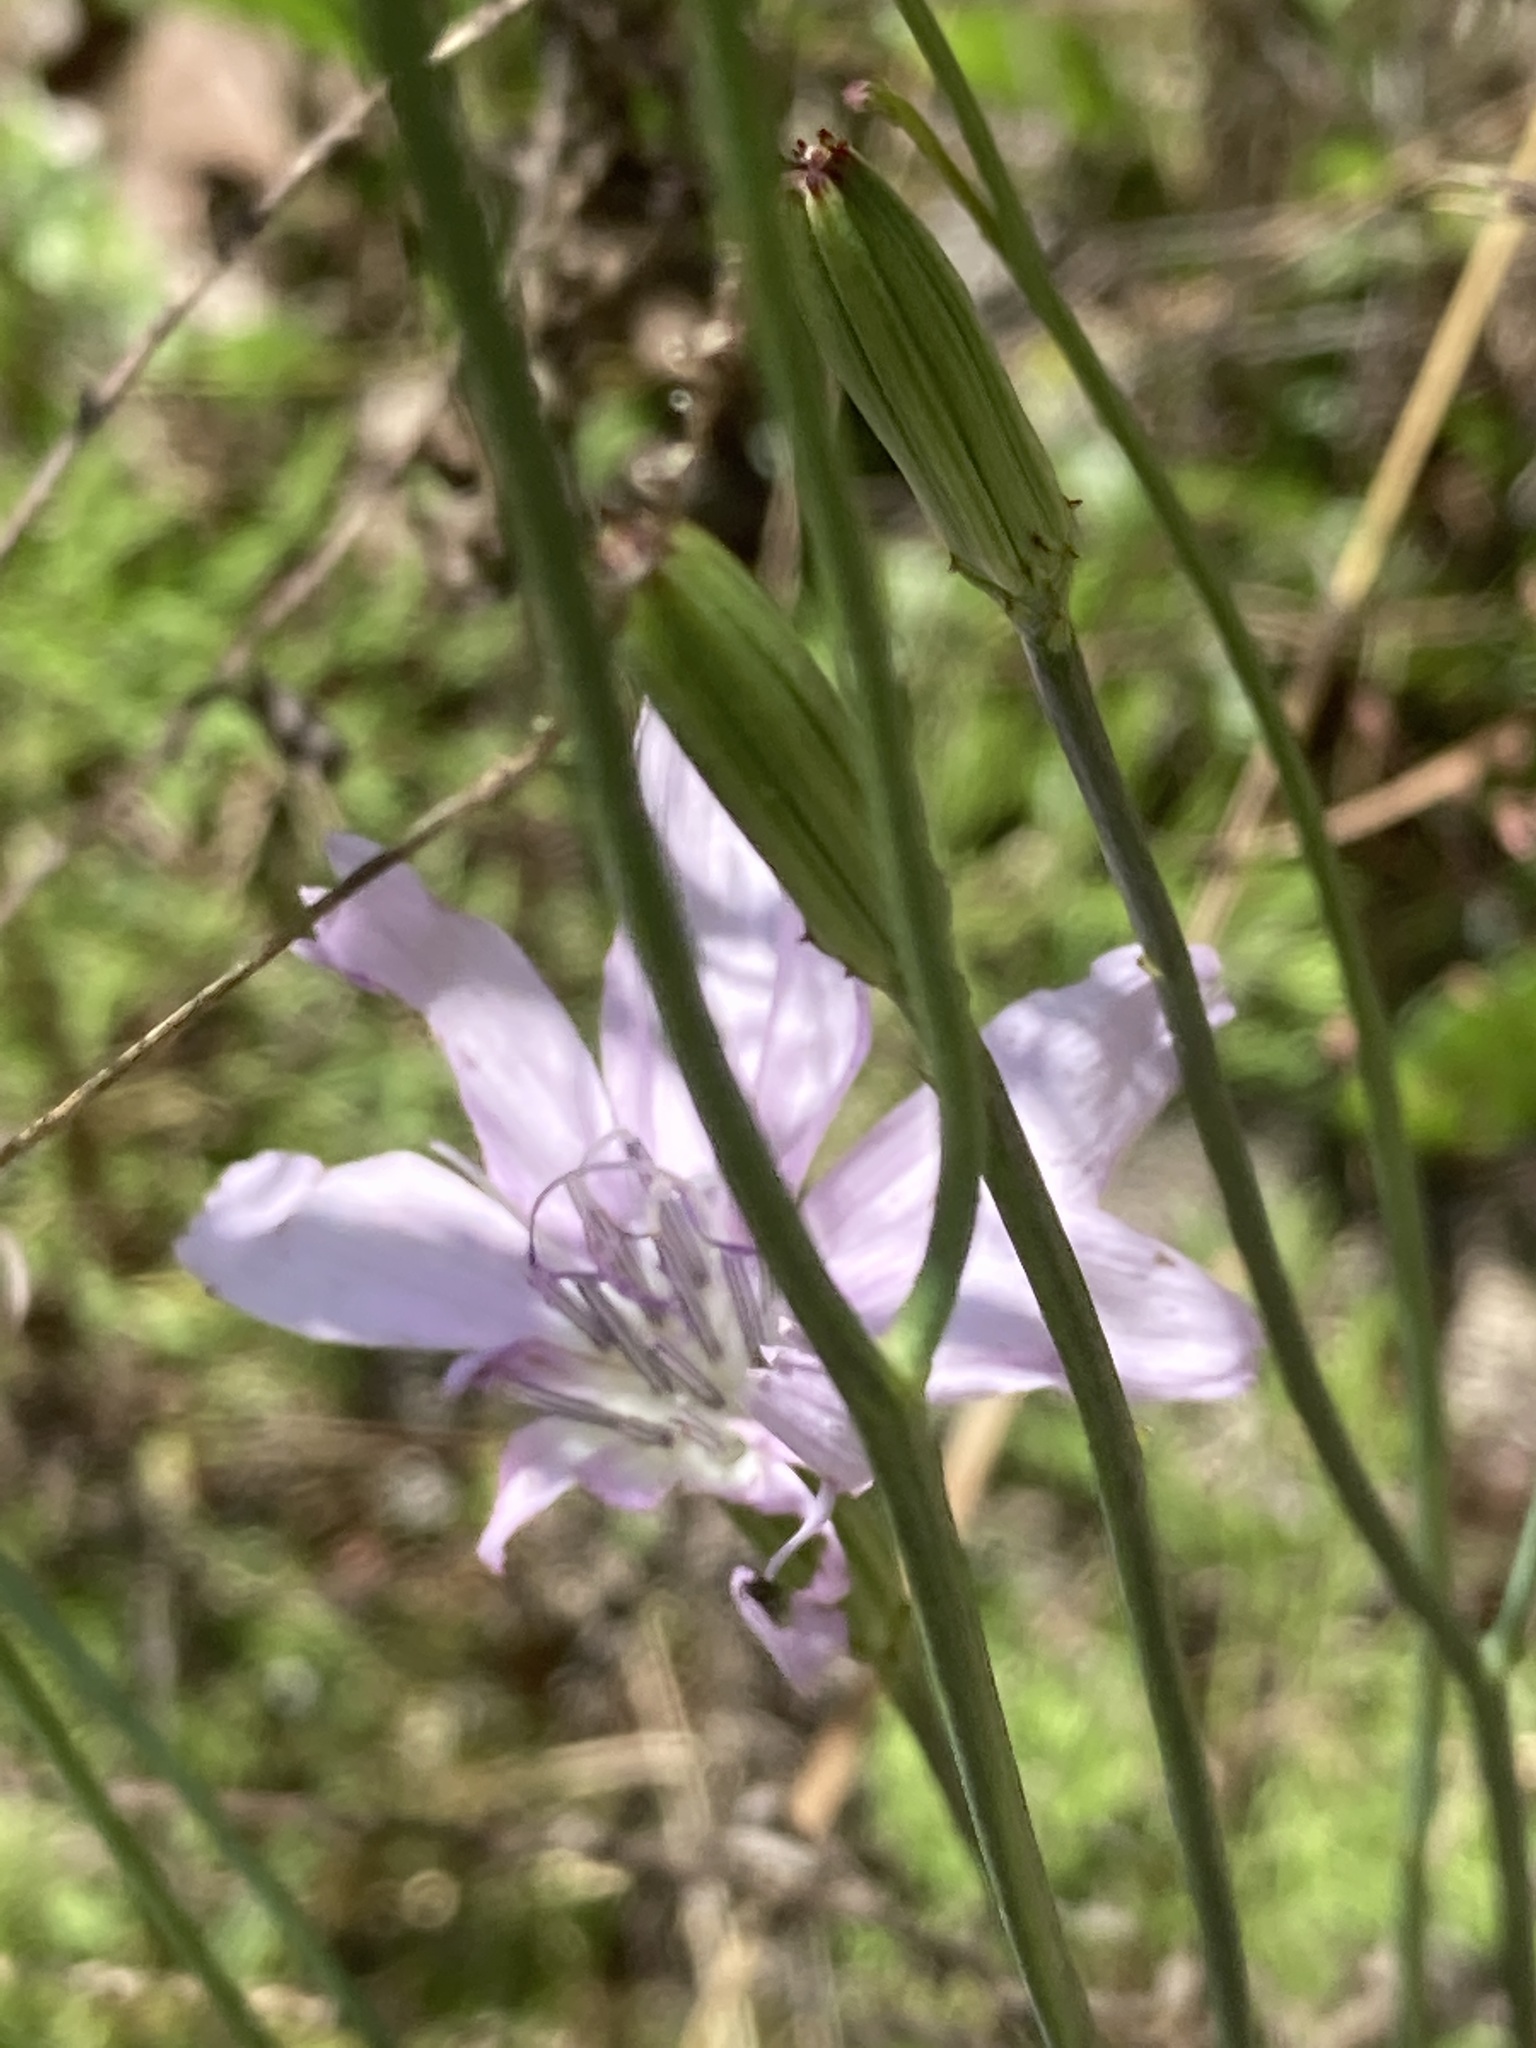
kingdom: Plantae
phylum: Tracheophyta
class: Magnoliopsida
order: Asterales
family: Asteraceae
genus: Lygodesmia
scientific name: Lygodesmia aphylla
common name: Rose-rush
